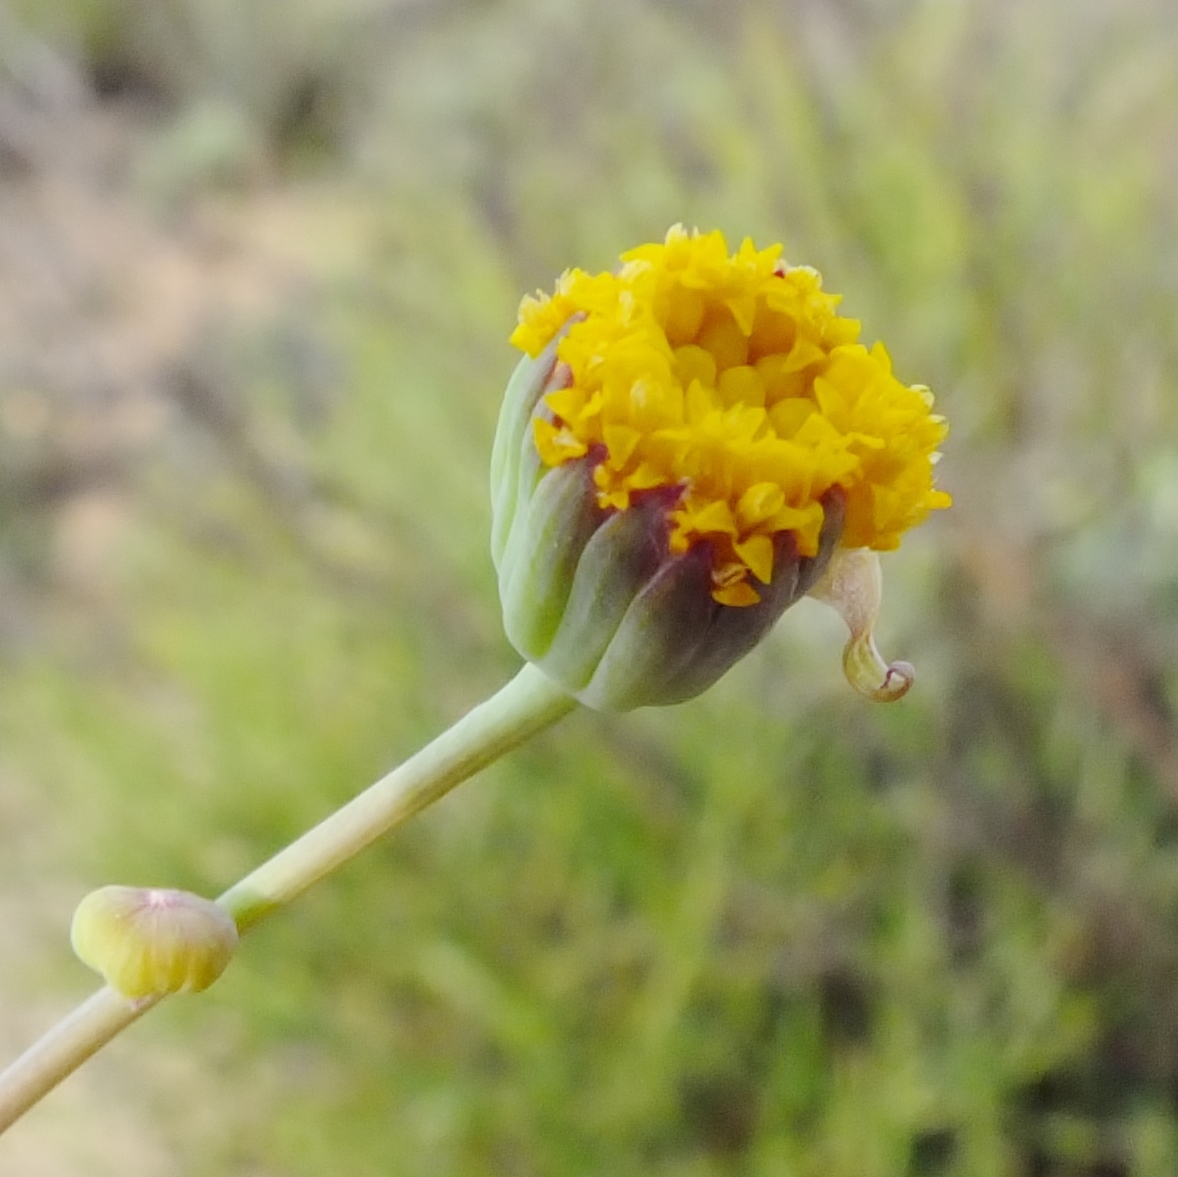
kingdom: Plantae
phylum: Tracheophyta
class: Magnoliopsida
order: Asterales
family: Asteraceae
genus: Othonna
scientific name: Othonna undulosa
